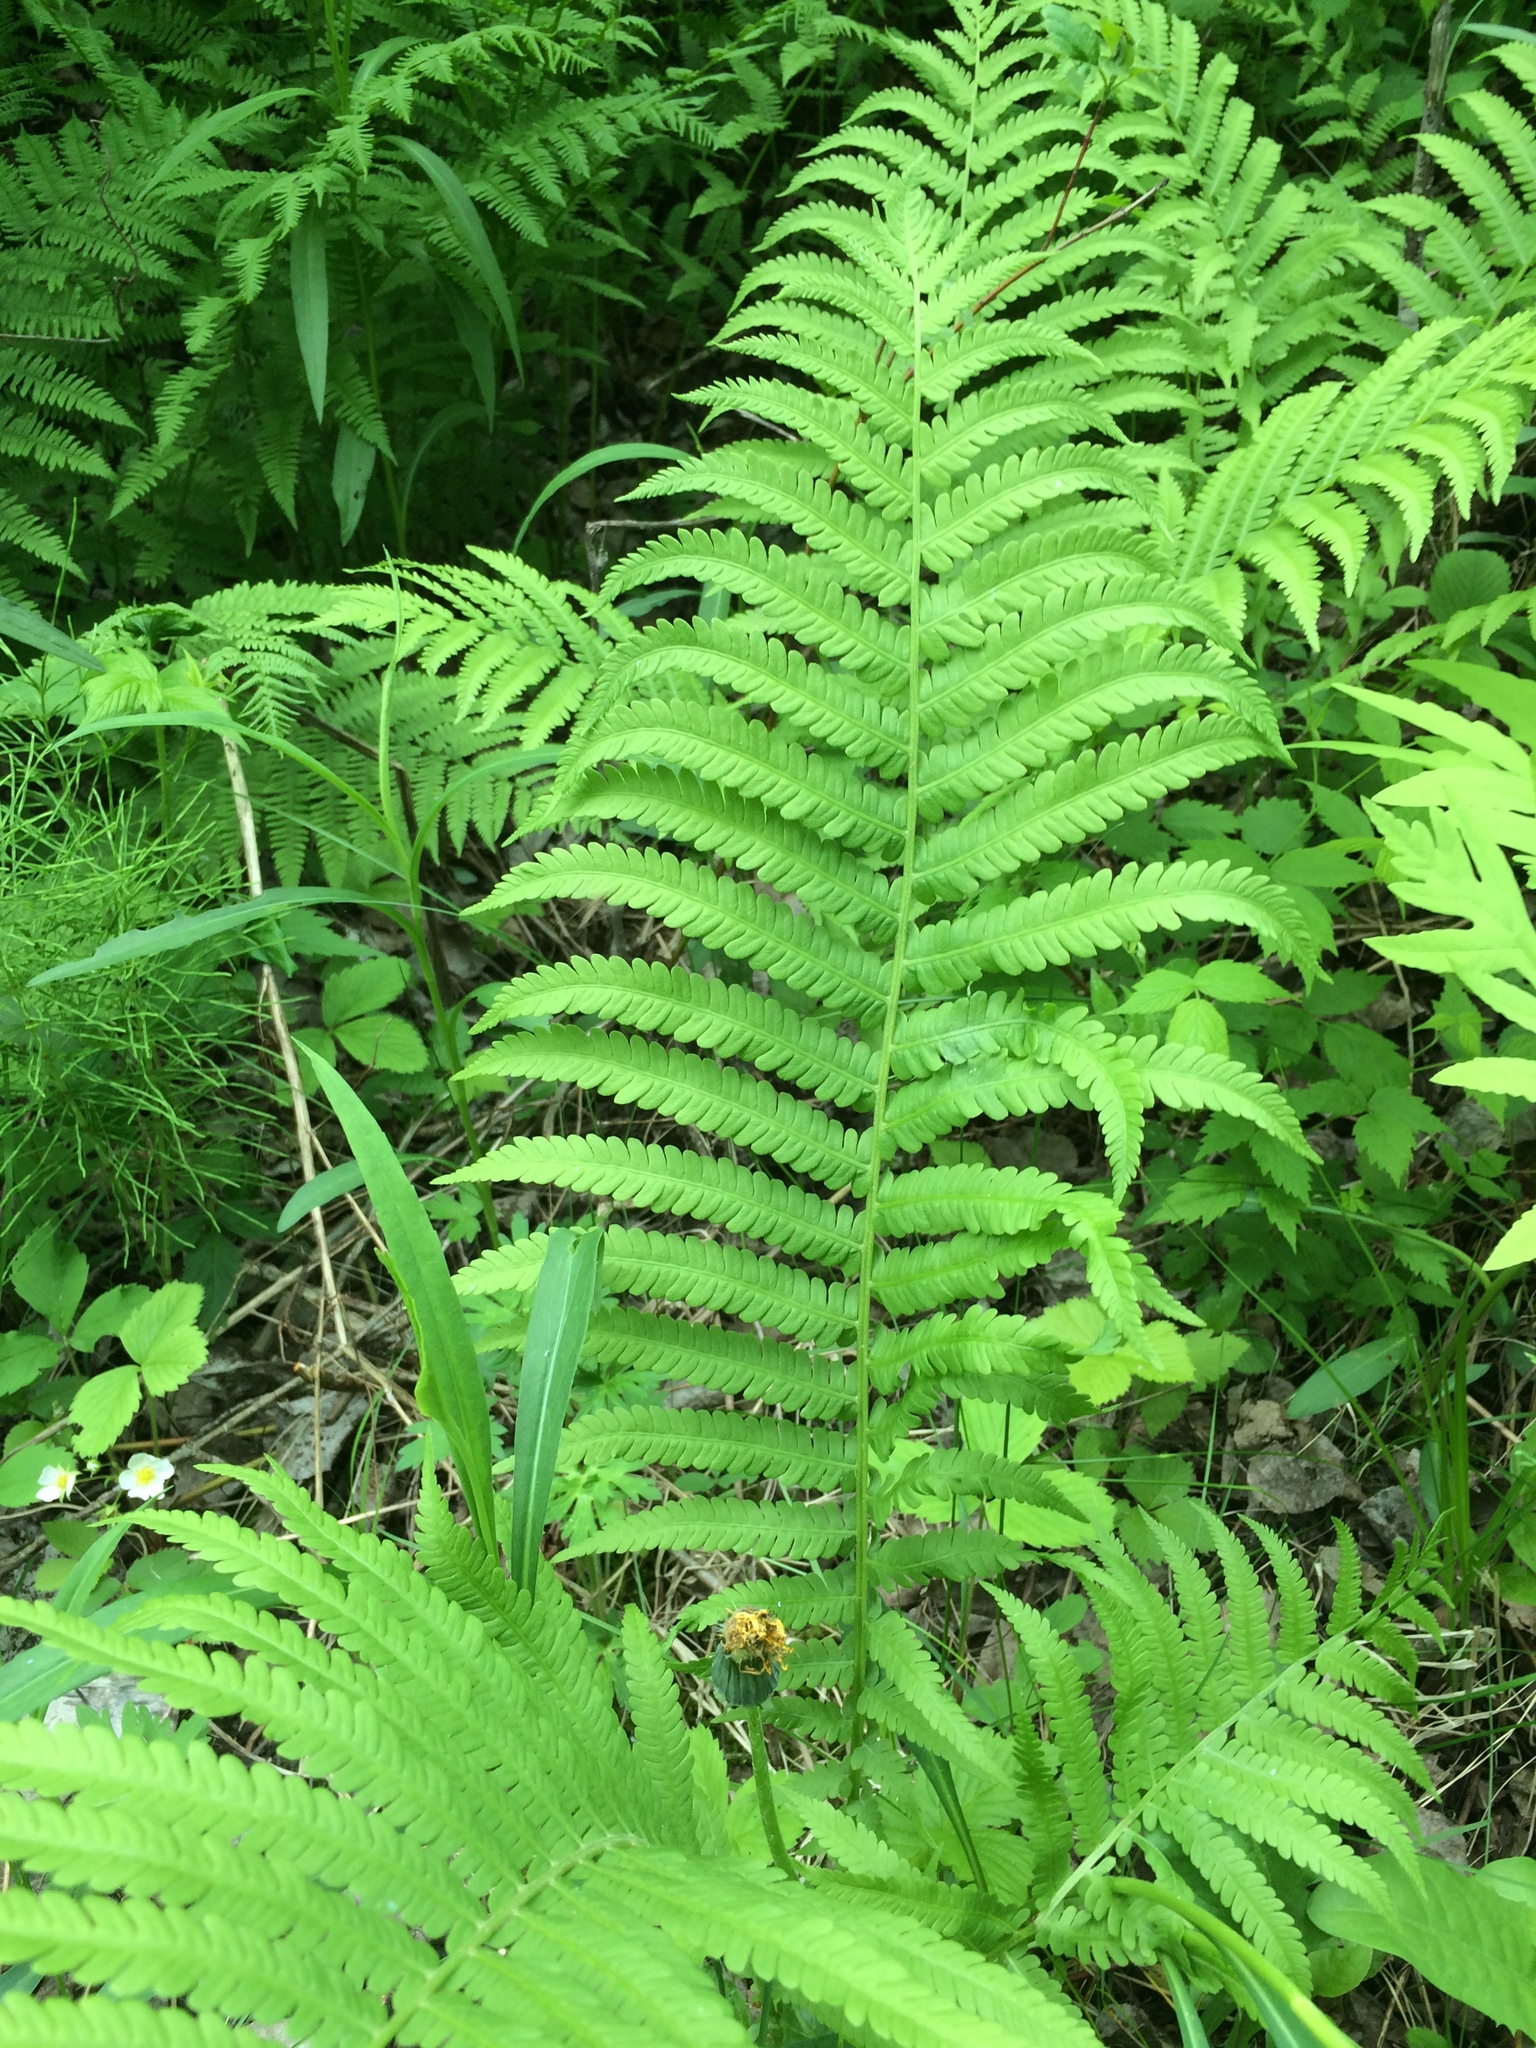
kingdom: Plantae
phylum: Tracheophyta
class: Polypodiopsida
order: Polypodiales
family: Onocleaceae
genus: Matteuccia
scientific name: Matteuccia struthiopteris
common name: Ostrich fern
